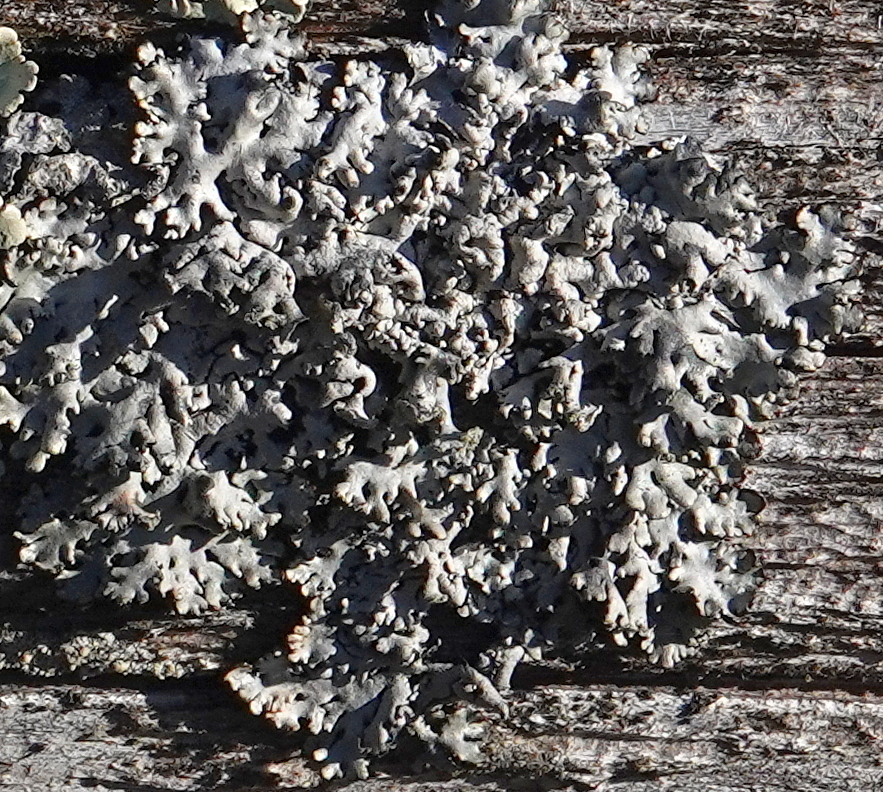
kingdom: Fungi
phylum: Ascomycota
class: Lecanoromycetes
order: Lecanorales
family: Parmeliaceae
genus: Hypogymnia
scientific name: Hypogymnia physodes
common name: Dark crottle
